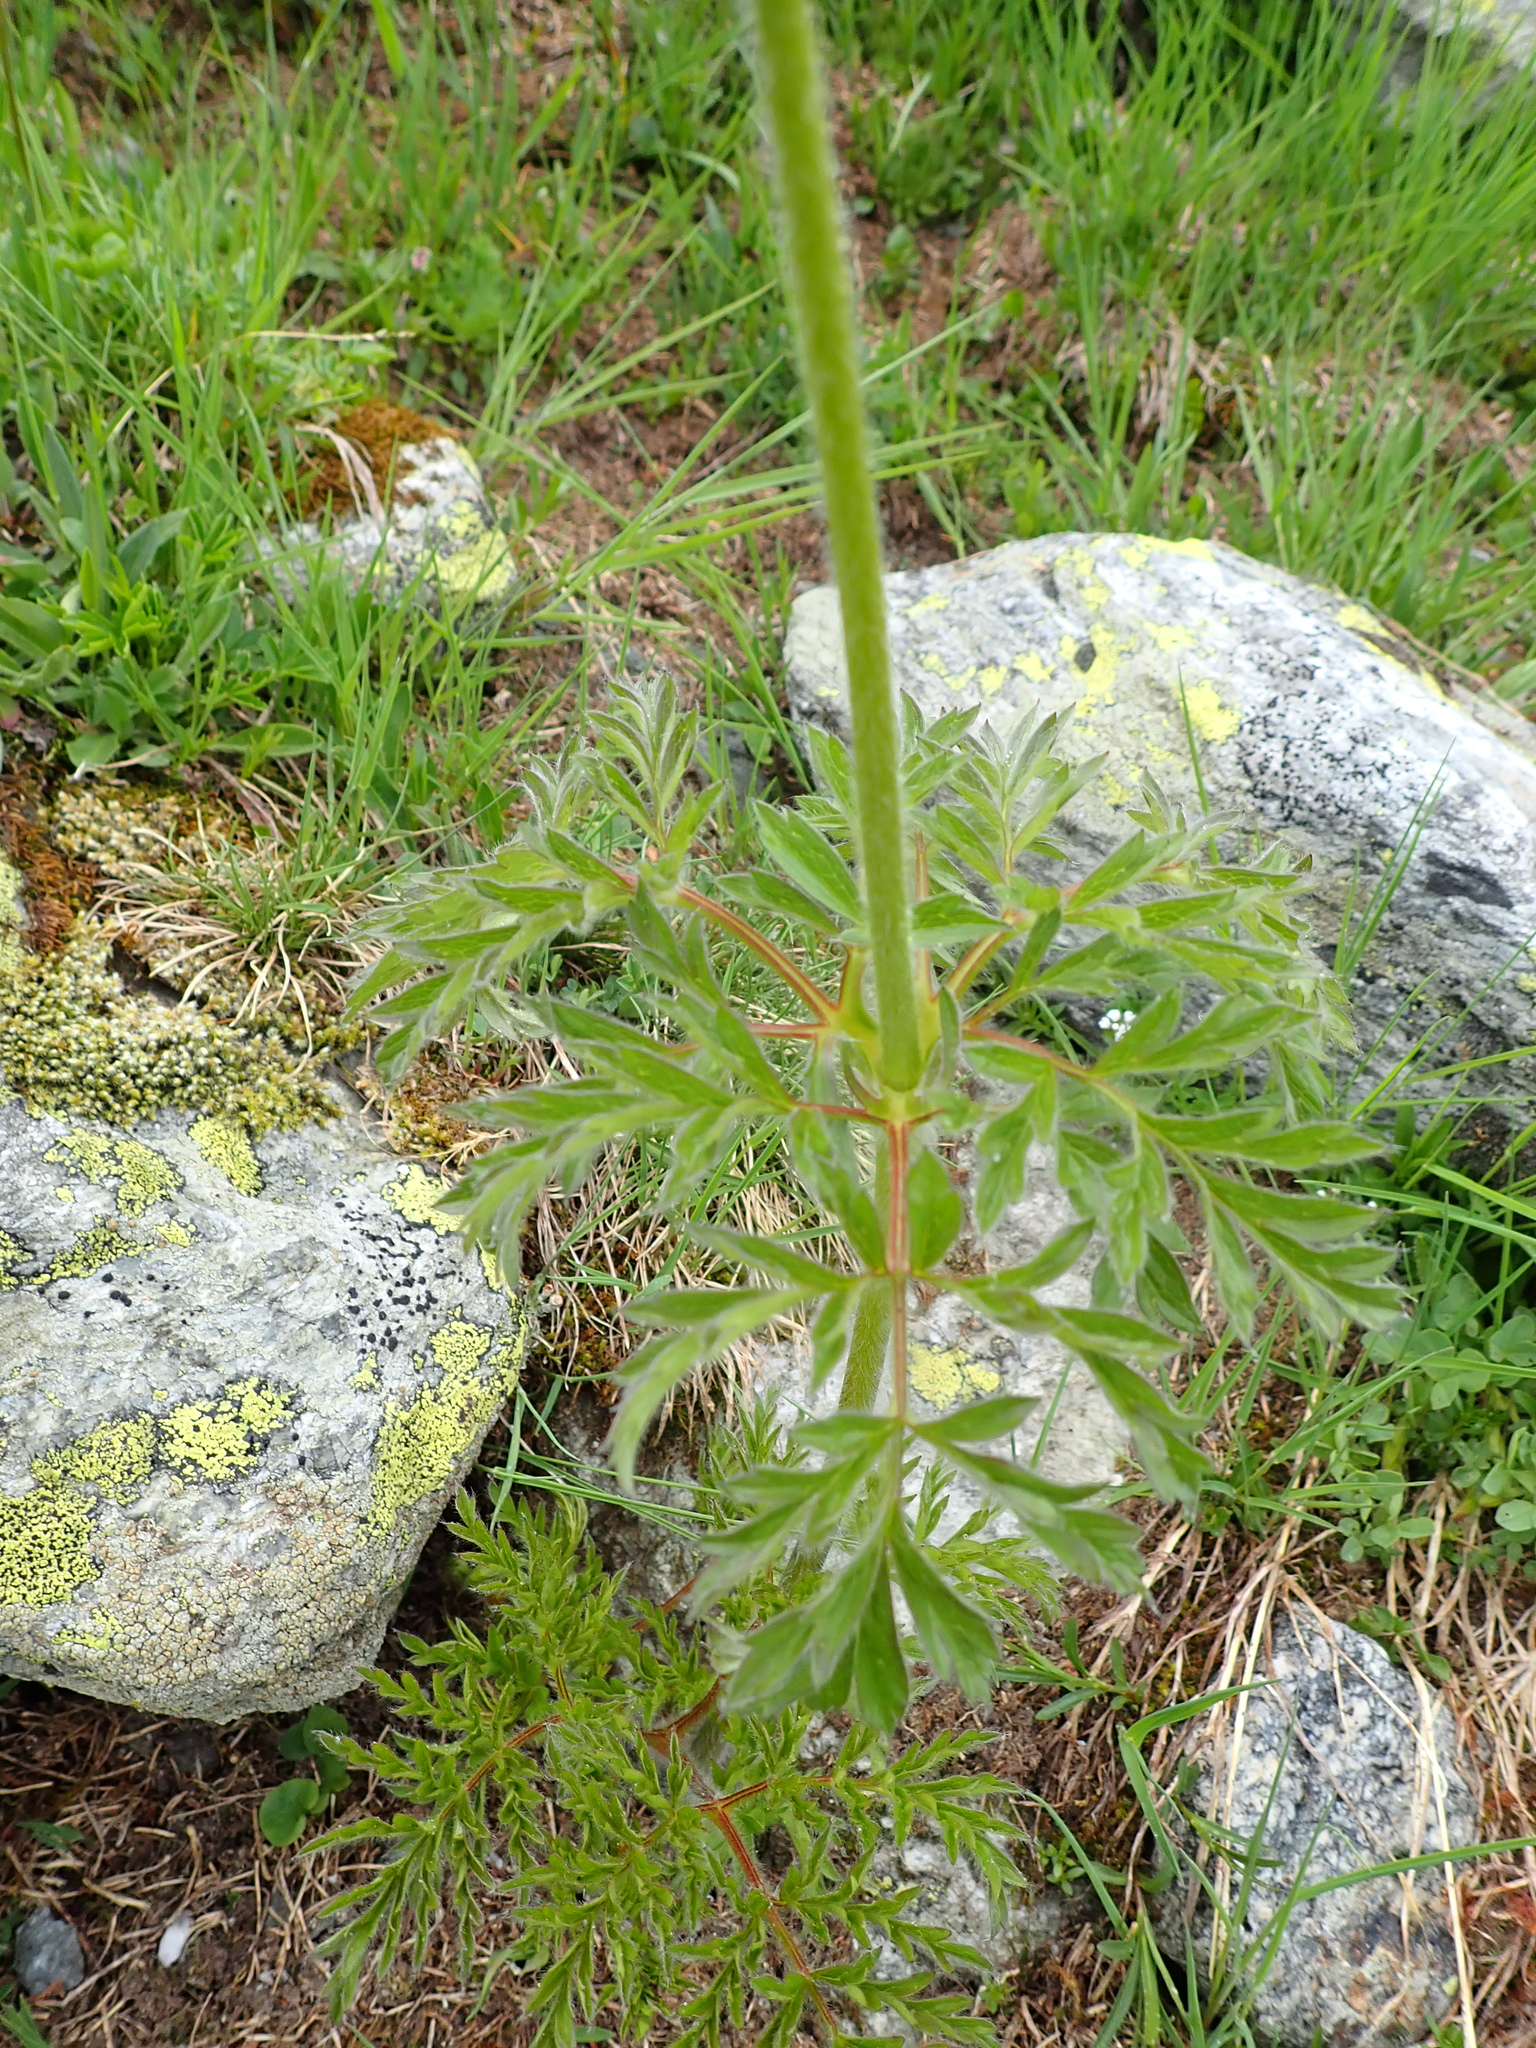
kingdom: Plantae
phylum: Tracheophyta
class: Magnoliopsida
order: Ranunculales
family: Ranunculaceae
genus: Pulsatilla
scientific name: Pulsatilla alpina
